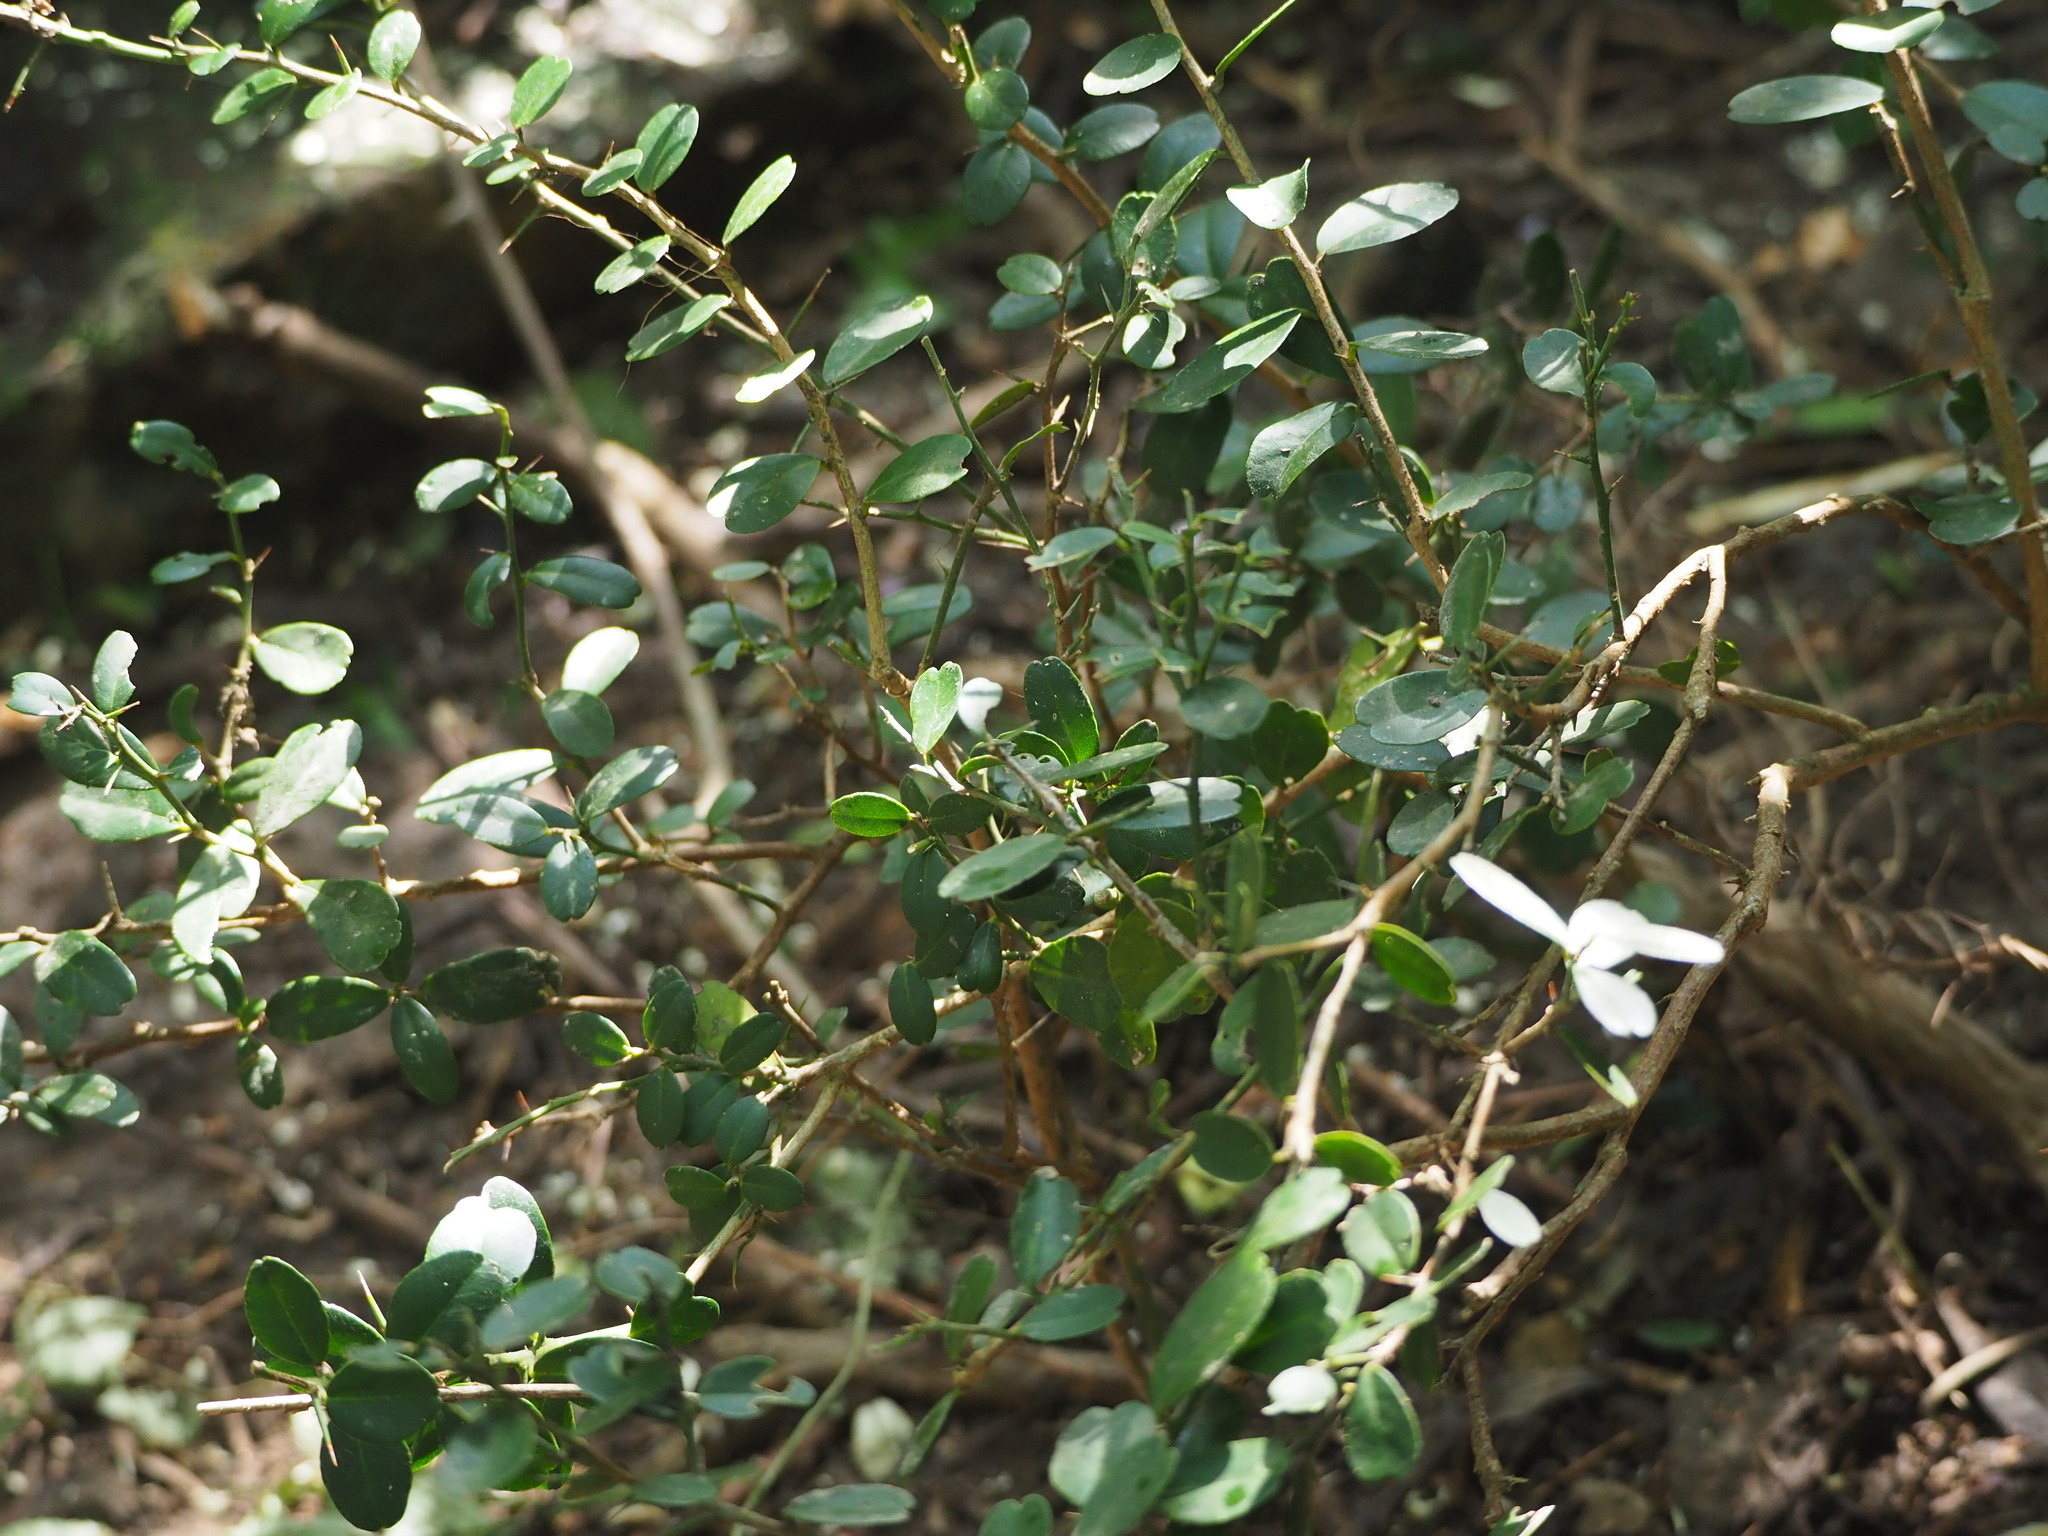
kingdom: Plantae
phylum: Tracheophyta
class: Magnoliopsida
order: Sapindales
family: Rutaceae
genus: Atalantia
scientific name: Atalantia buxifolia
